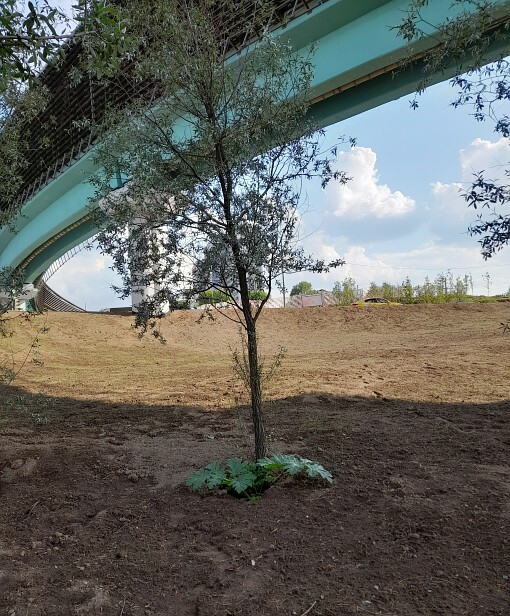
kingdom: Plantae
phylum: Tracheophyta
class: Magnoliopsida
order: Apiales
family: Apiaceae
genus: Heracleum
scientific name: Heracleum sosnowskyi
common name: Sosnowsky's hogweed
